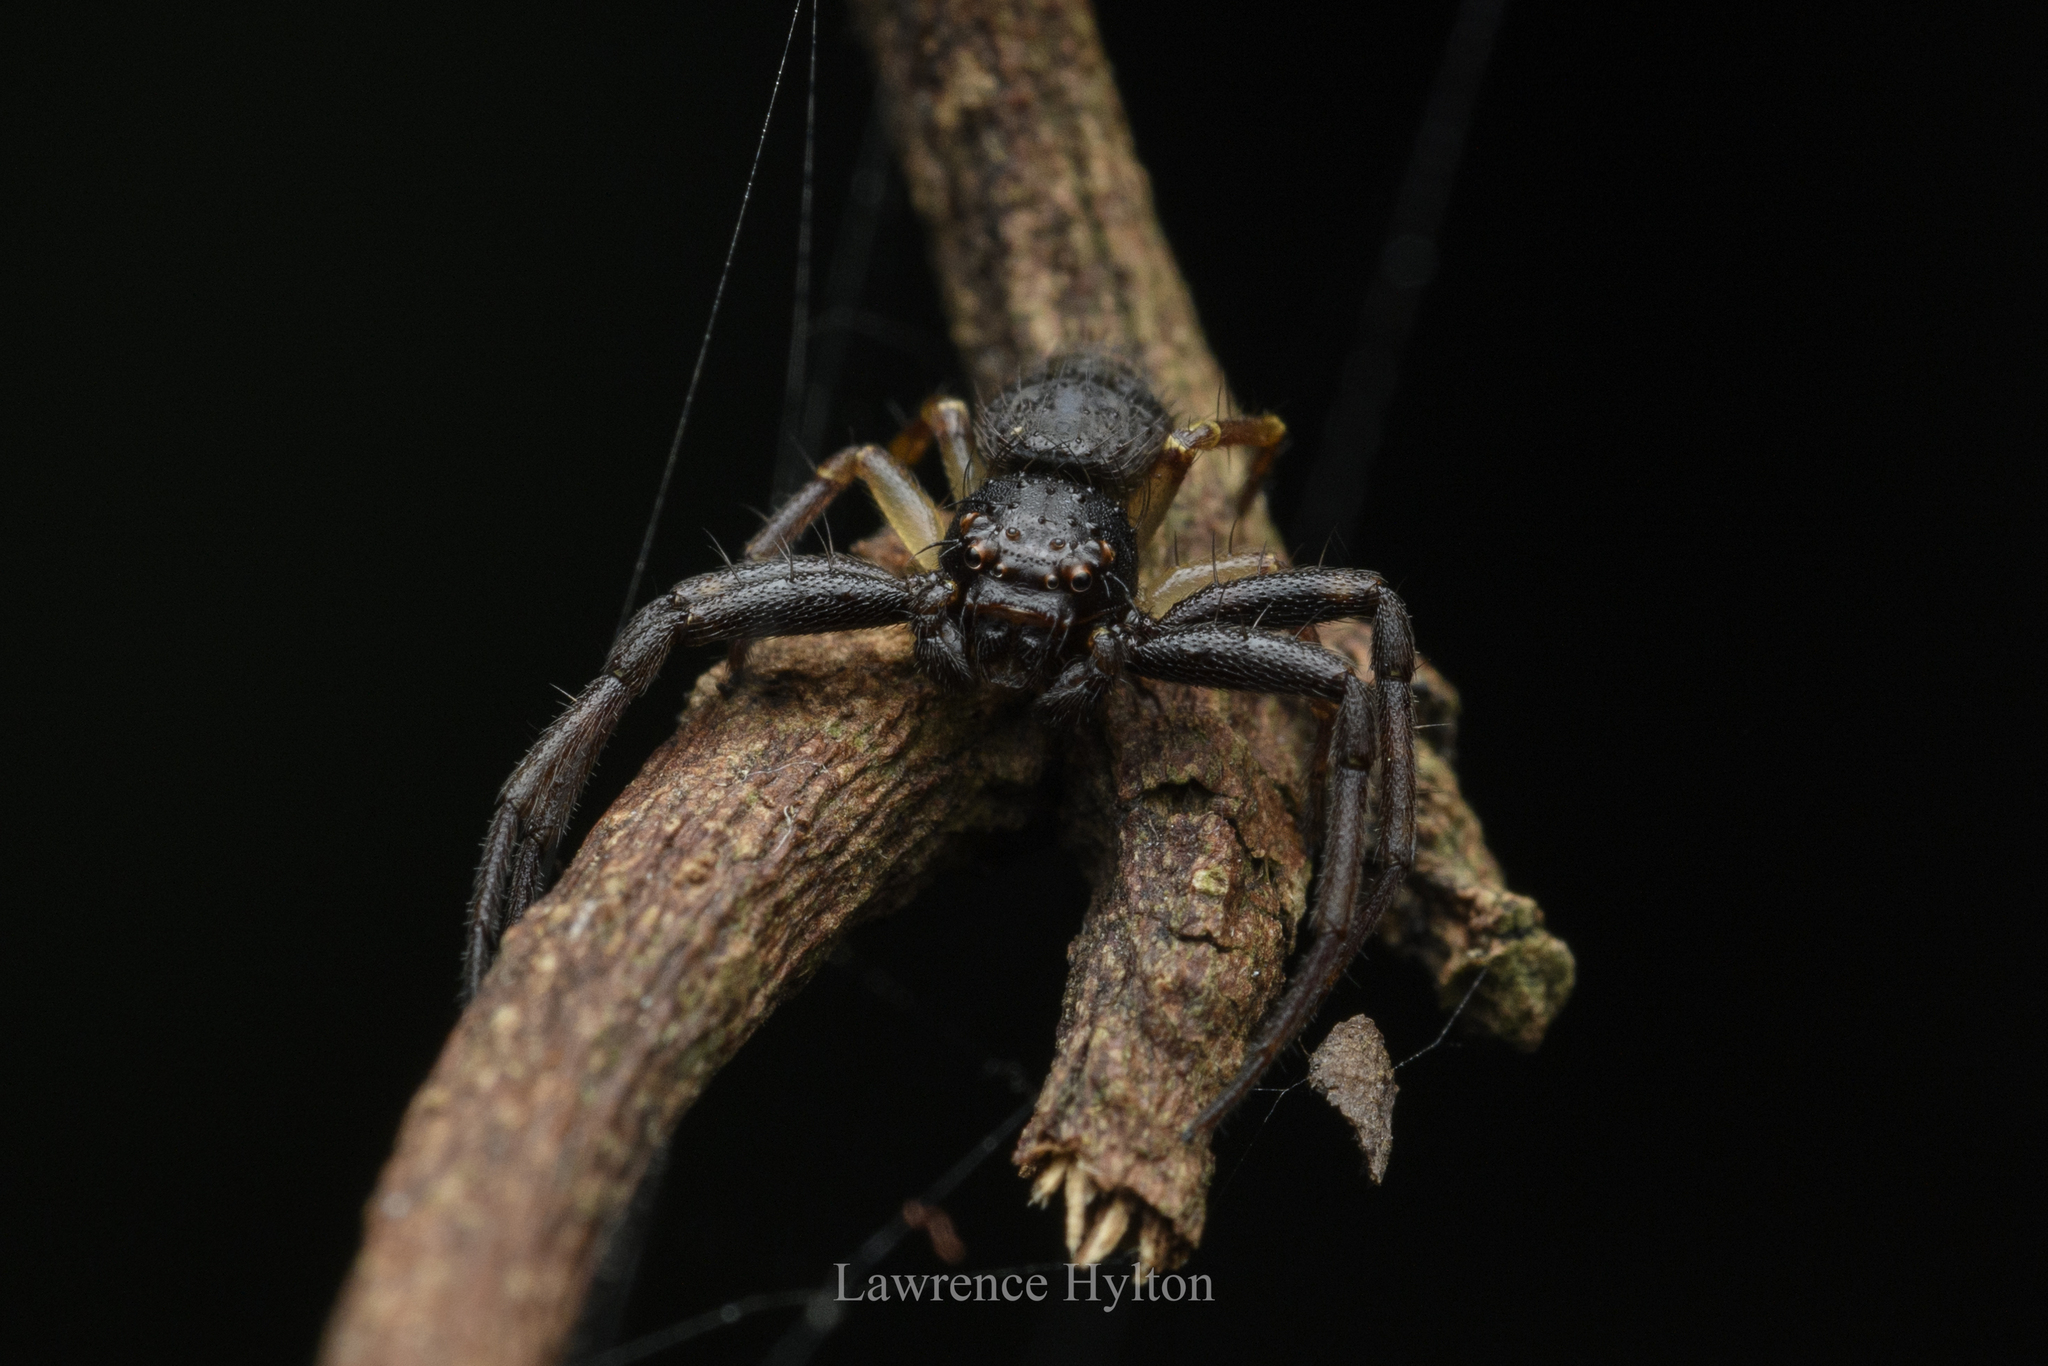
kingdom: Animalia
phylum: Arthropoda
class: Arachnida
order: Araneae
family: Thomisidae
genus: Strigoplus
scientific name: Strigoplus guizhouensis
